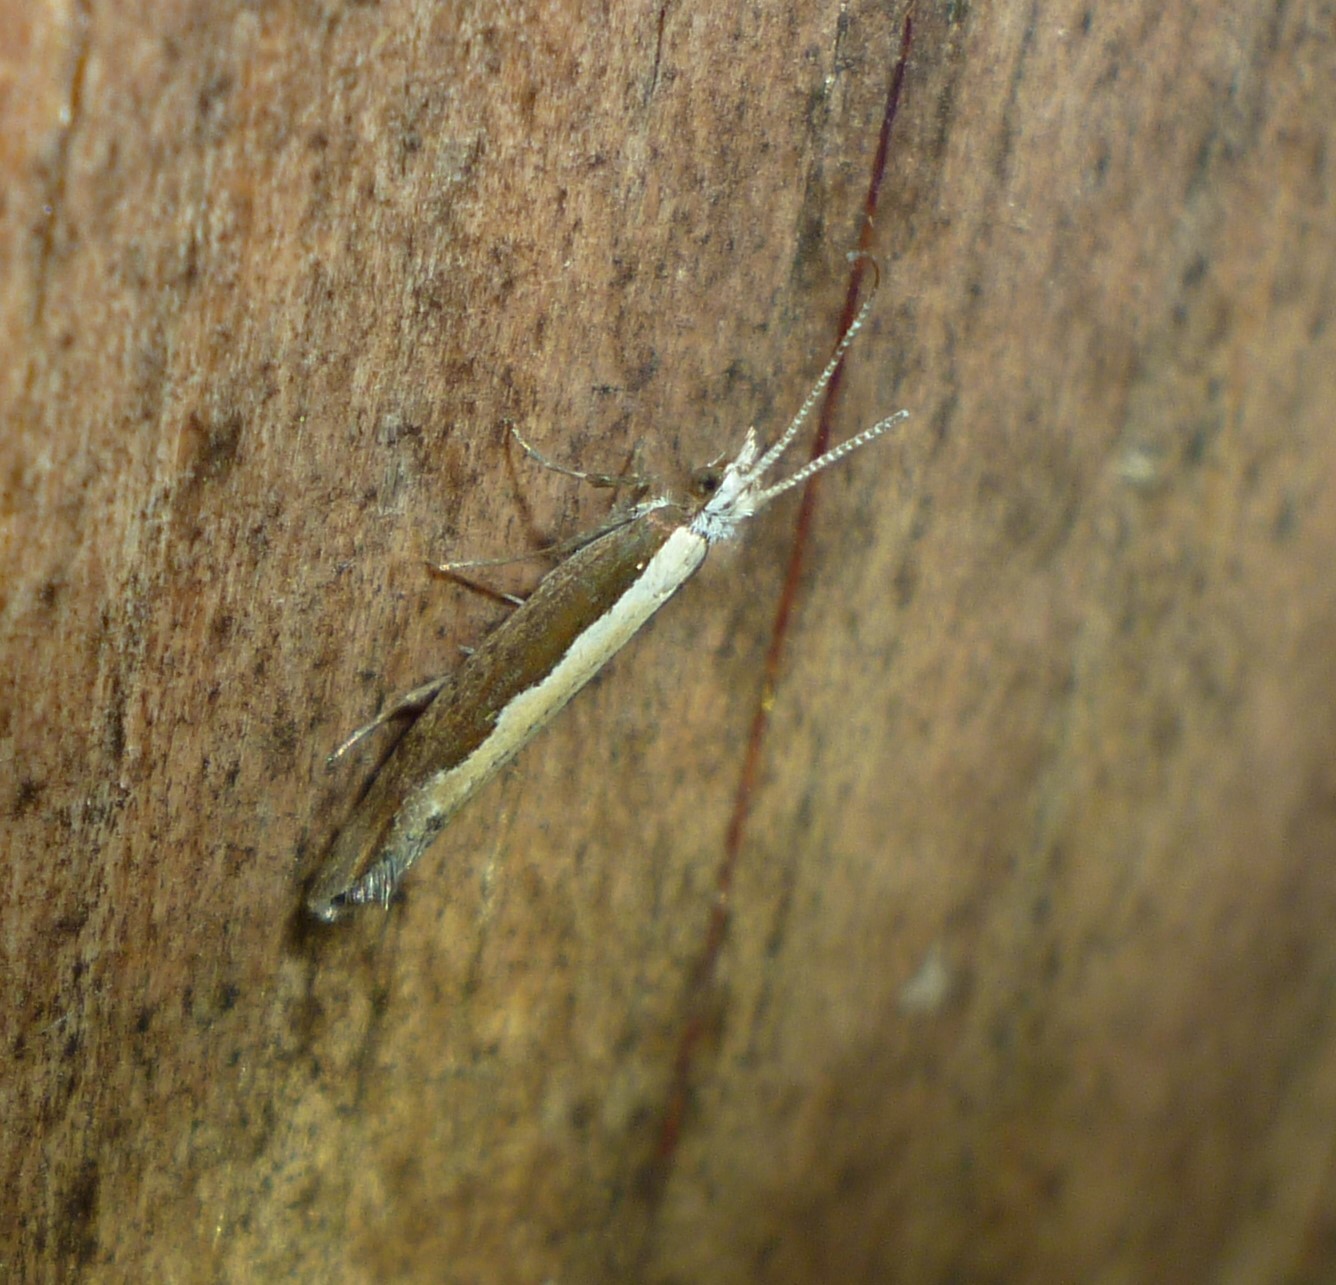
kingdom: Animalia
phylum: Arthropoda
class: Insecta
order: Lepidoptera
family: Plutellidae
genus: Plutella
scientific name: Plutella xylostella
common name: Diamond-back moth
